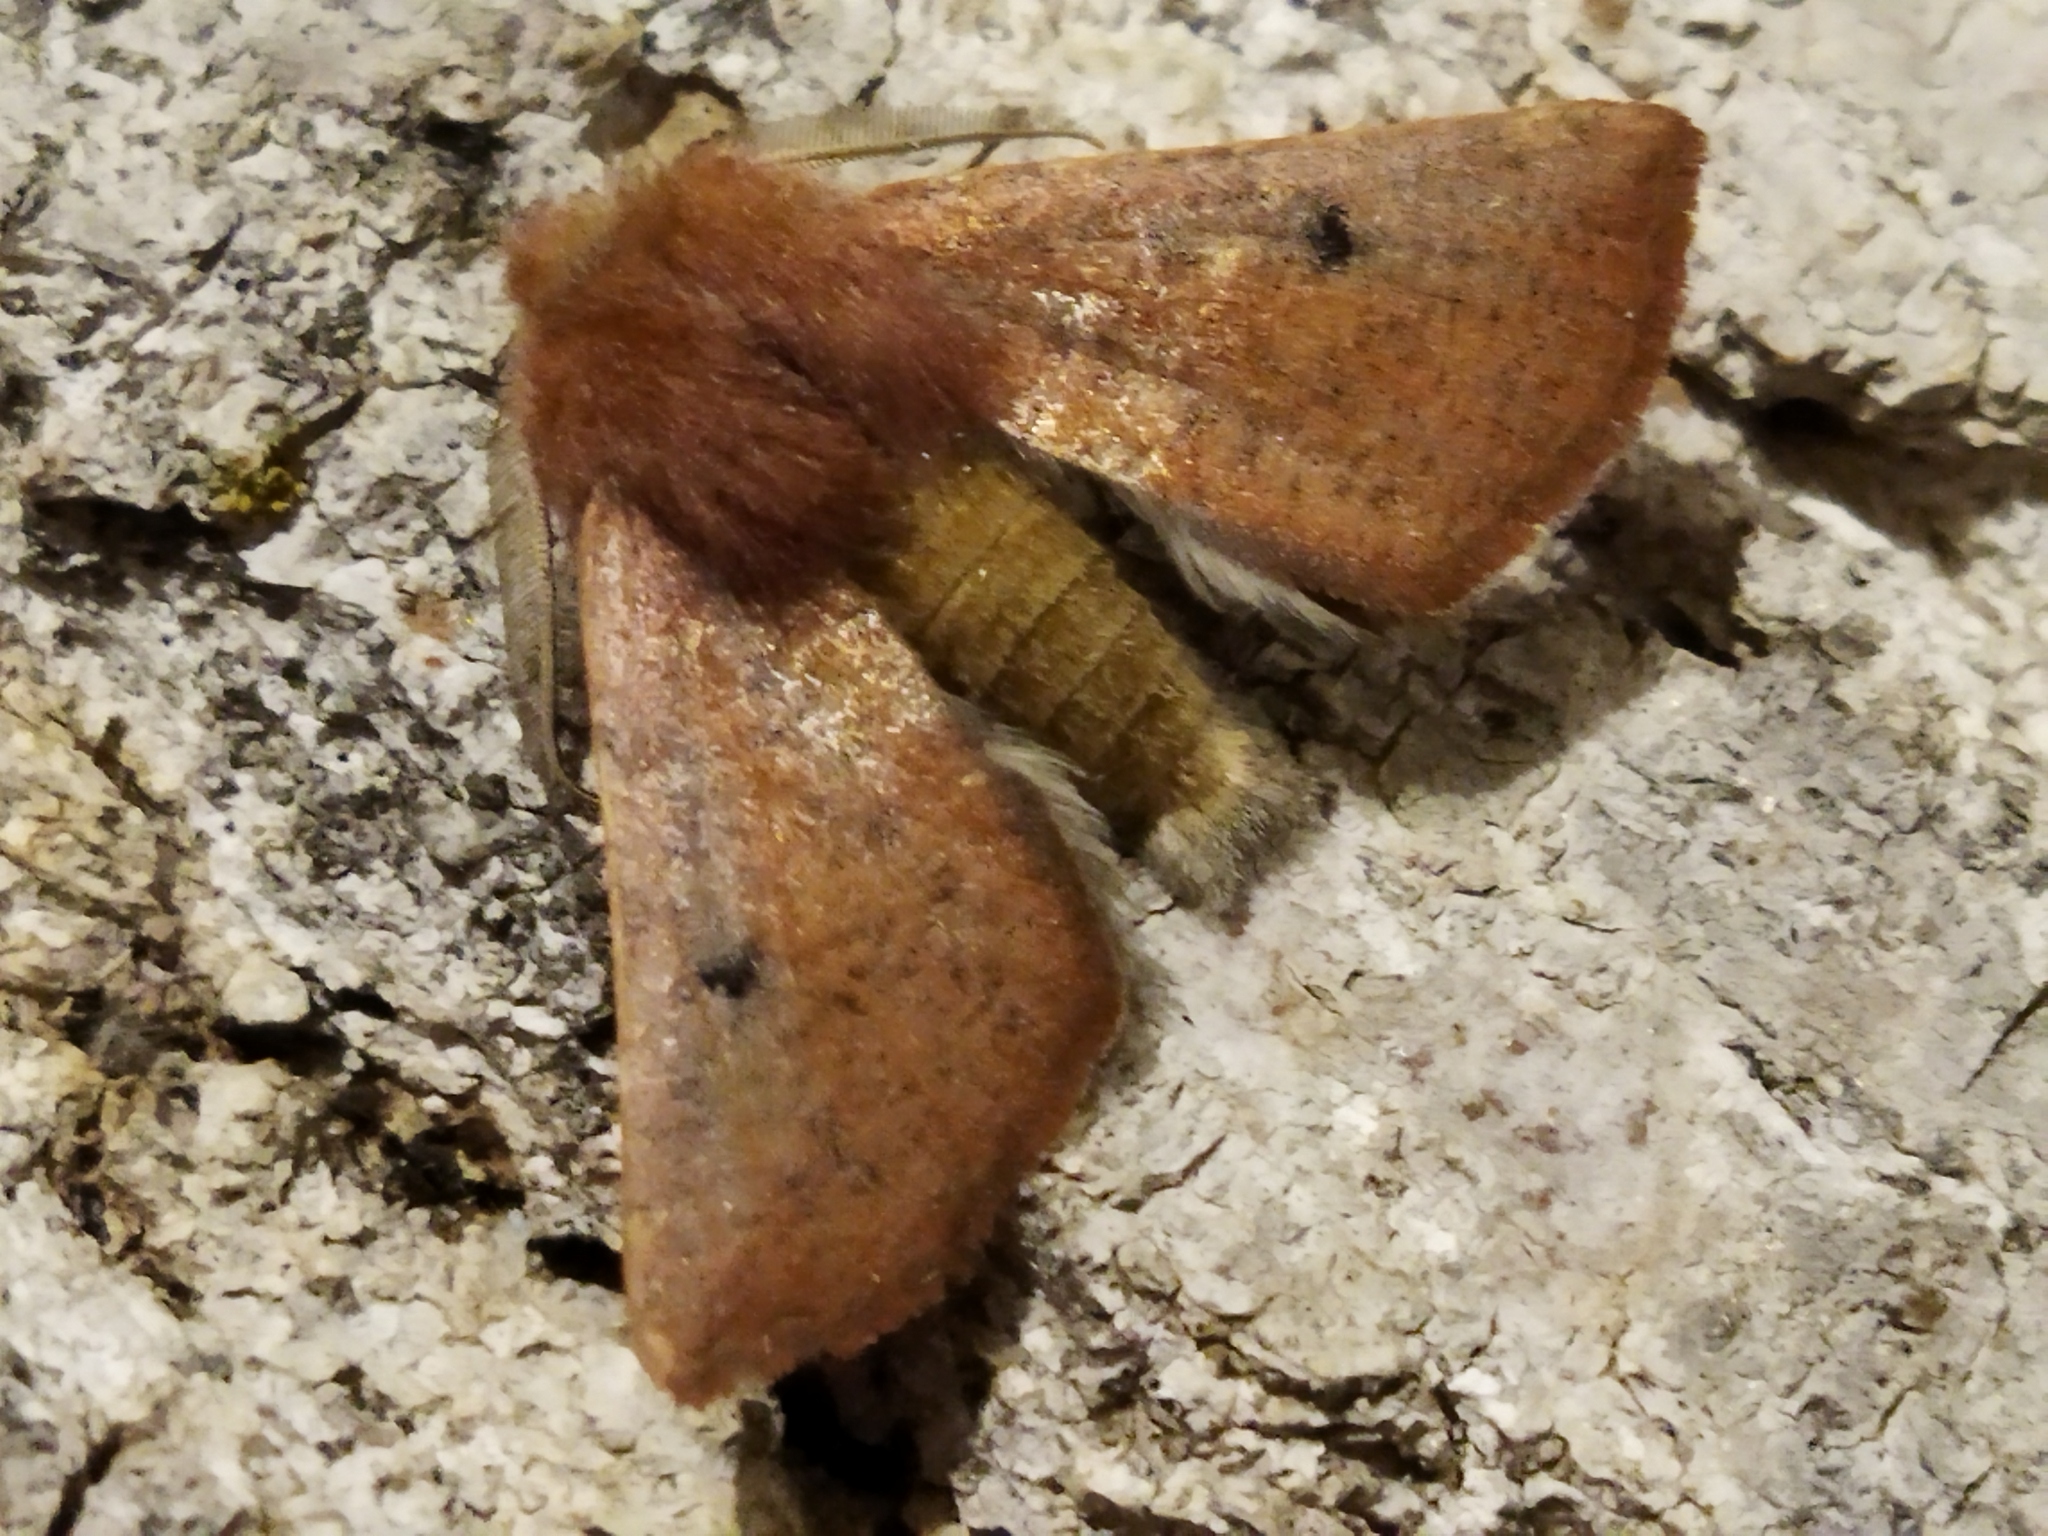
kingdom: Animalia
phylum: Arthropoda
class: Insecta
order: Lepidoptera
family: Geometridae
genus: Dasycorsa
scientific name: Dasycorsa modesta
